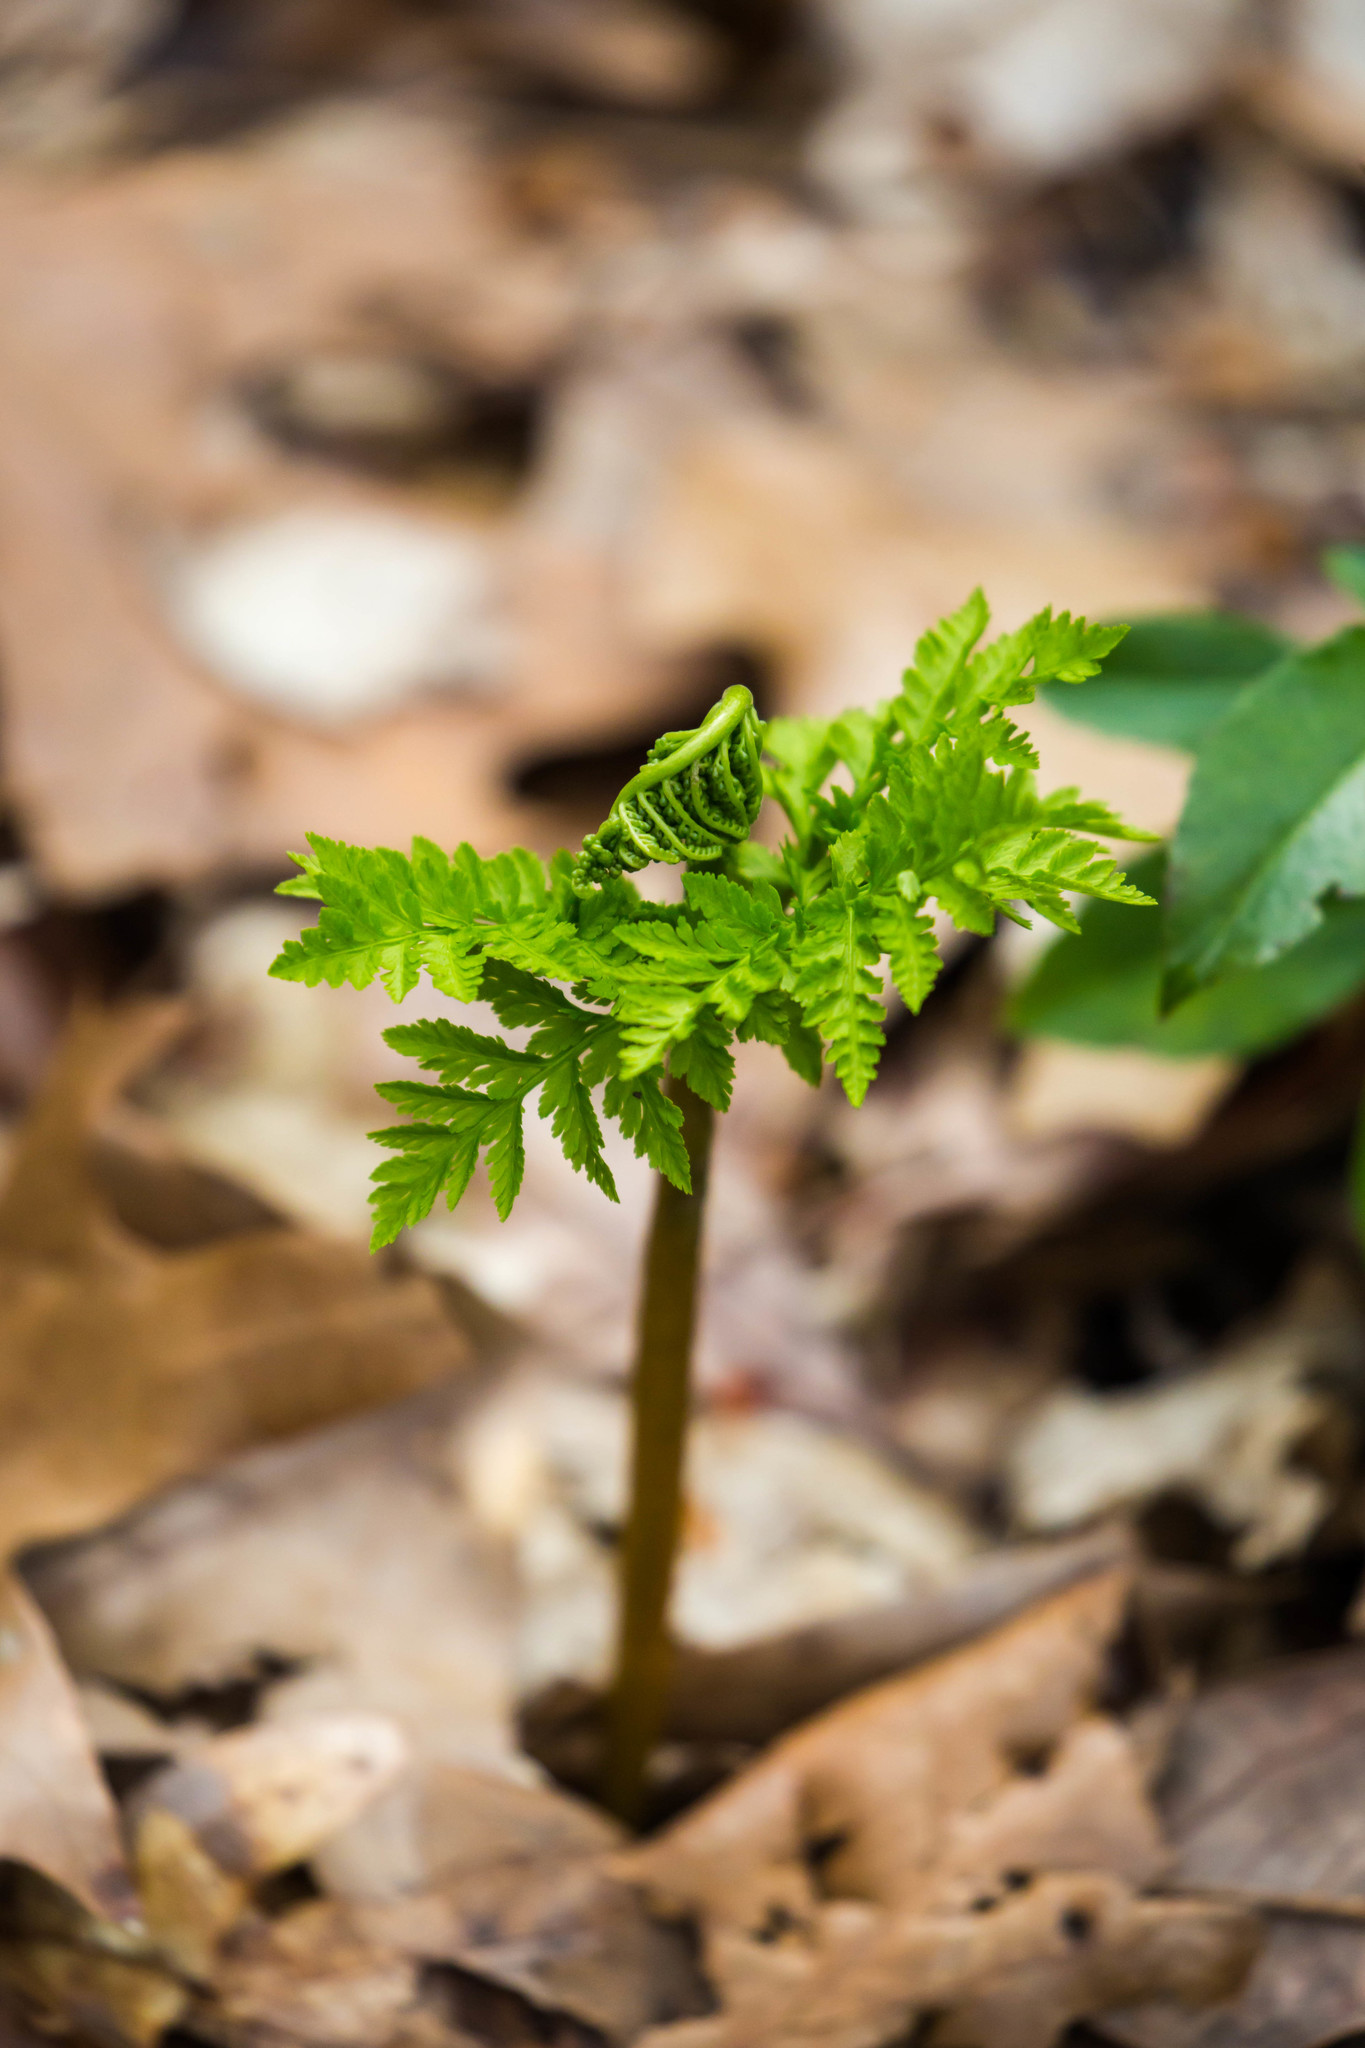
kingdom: Plantae
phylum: Tracheophyta
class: Polypodiopsida
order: Ophioglossales
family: Ophioglossaceae
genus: Botrypus
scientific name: Botrypus virginianus
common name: Common grapefern
